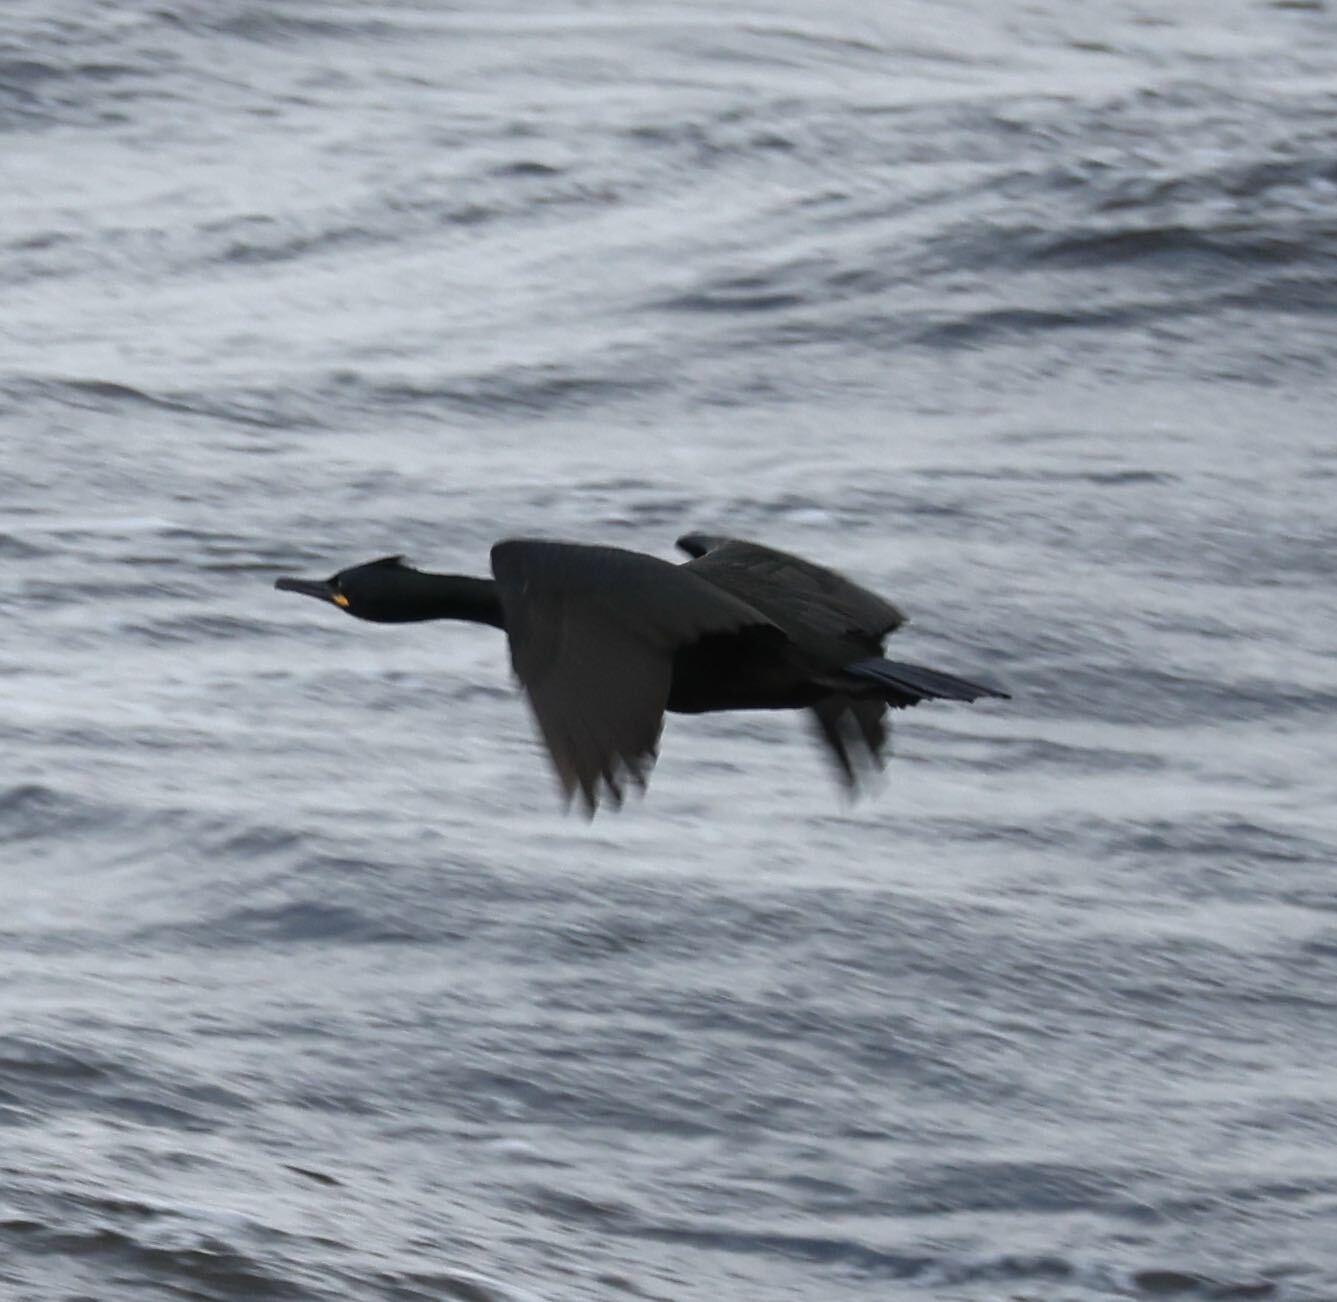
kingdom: Animalia
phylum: Chordata
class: Aves
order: Suliformes
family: Phalacrocoracidae
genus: Phalacrocorax
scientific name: Phalacrocorax aristotelis
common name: European shag
